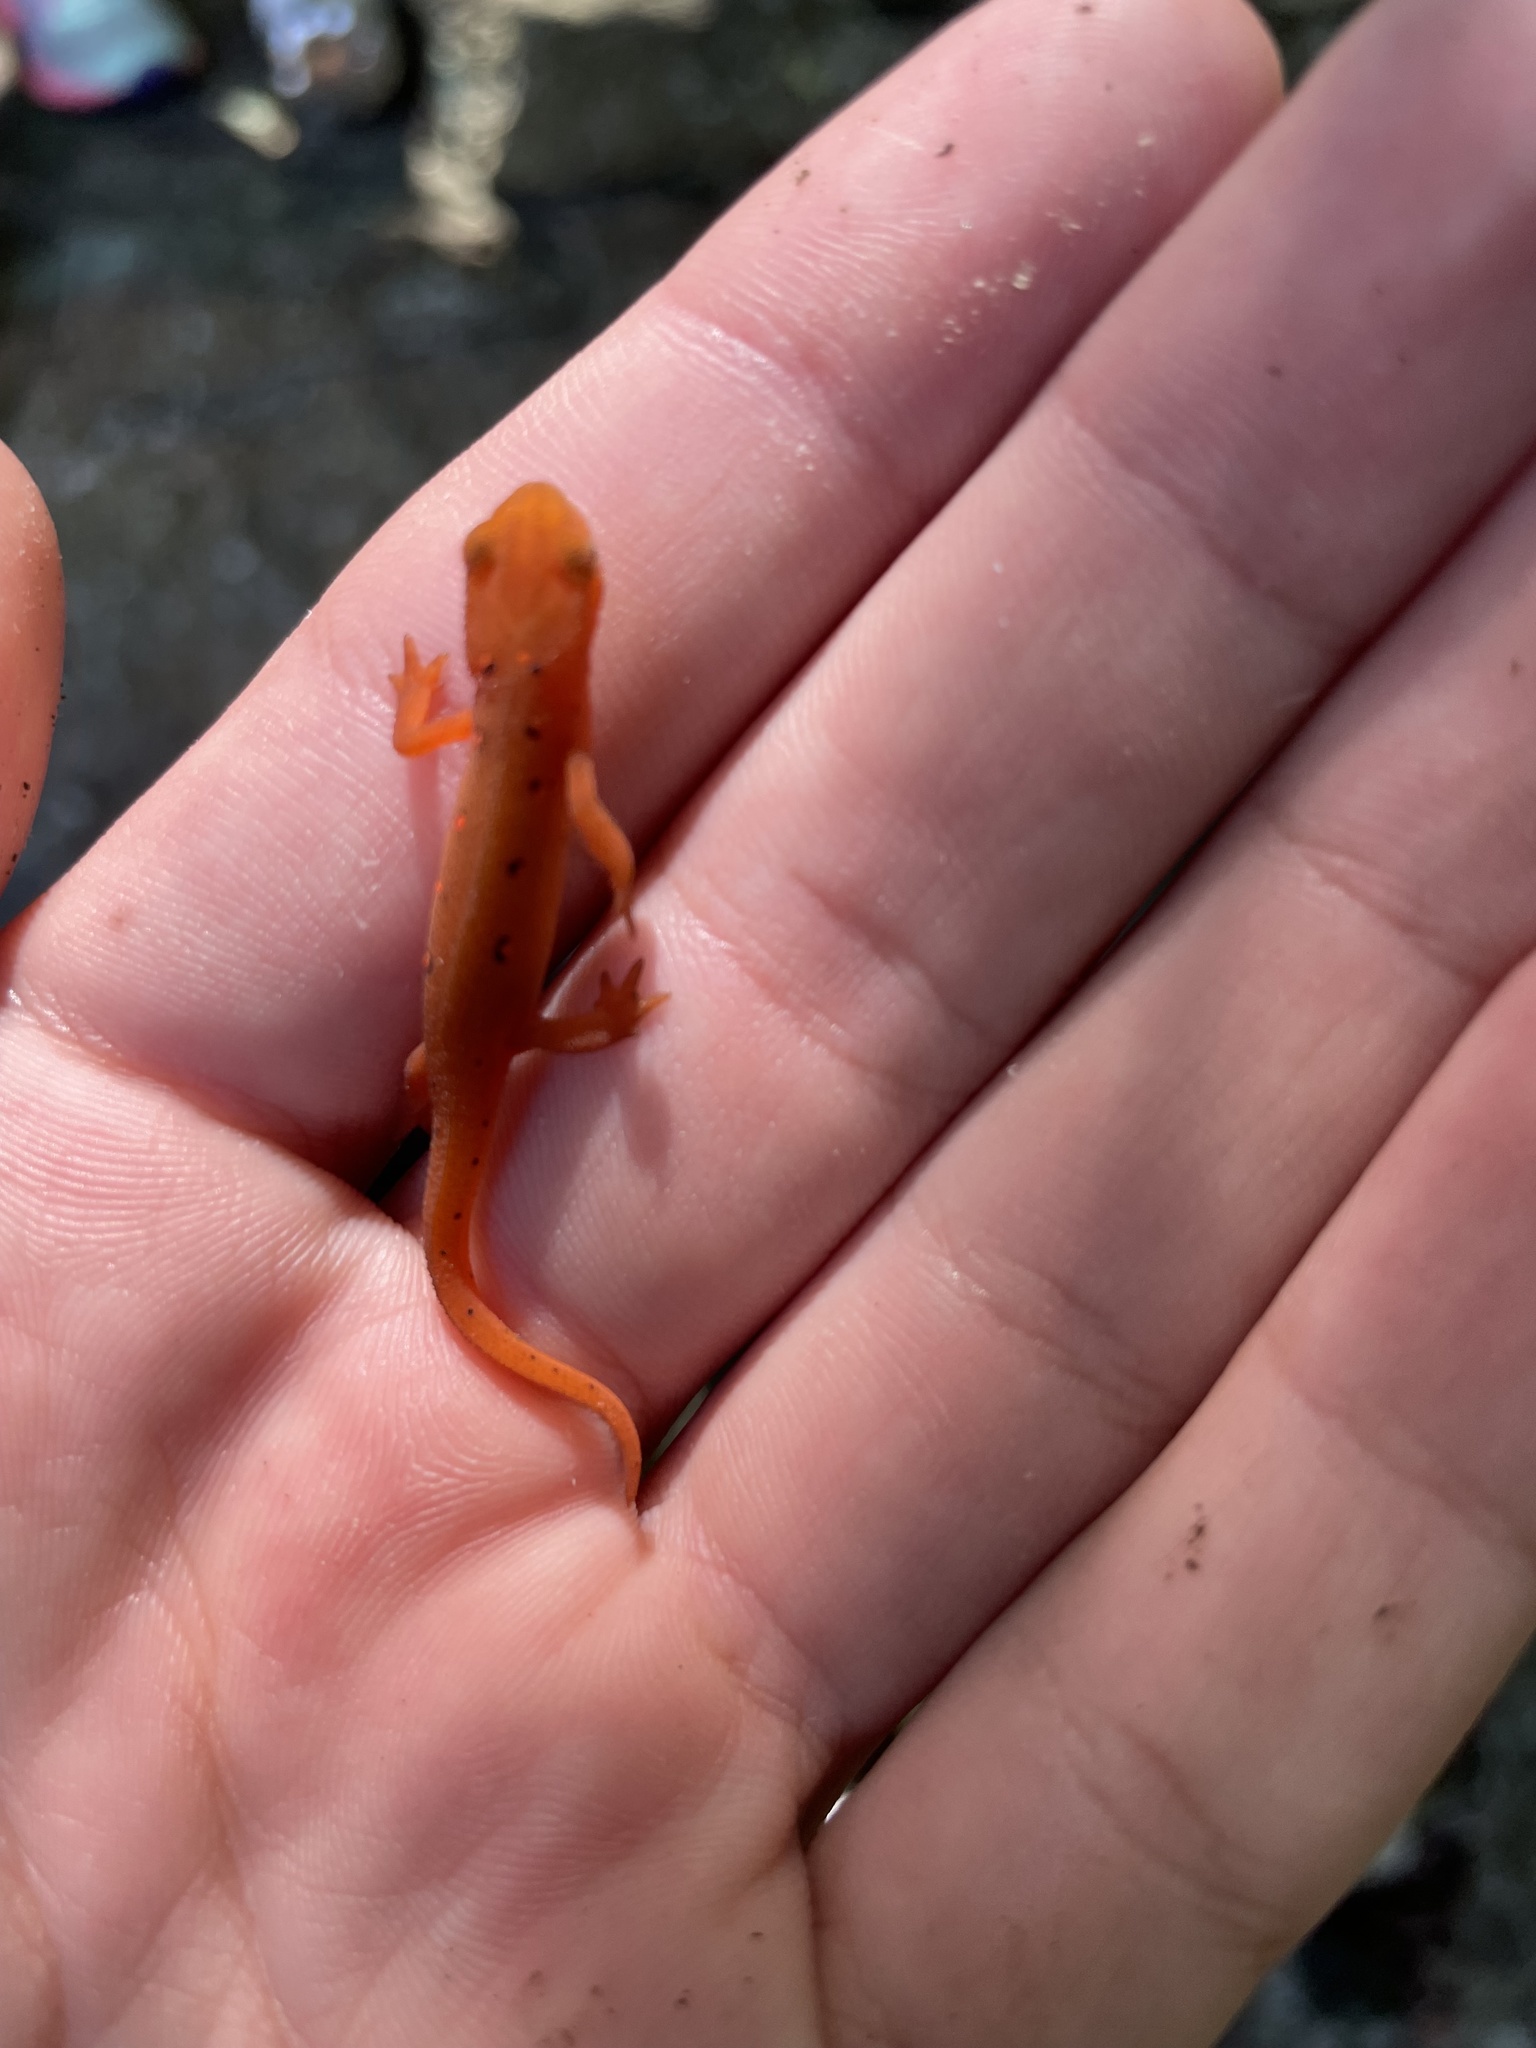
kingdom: Animalia
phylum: Chordata
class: Amphibia
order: Caudata
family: Salamandridae
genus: Notophthalmus
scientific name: Notophthalmus viridescens
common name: Eastern newt
